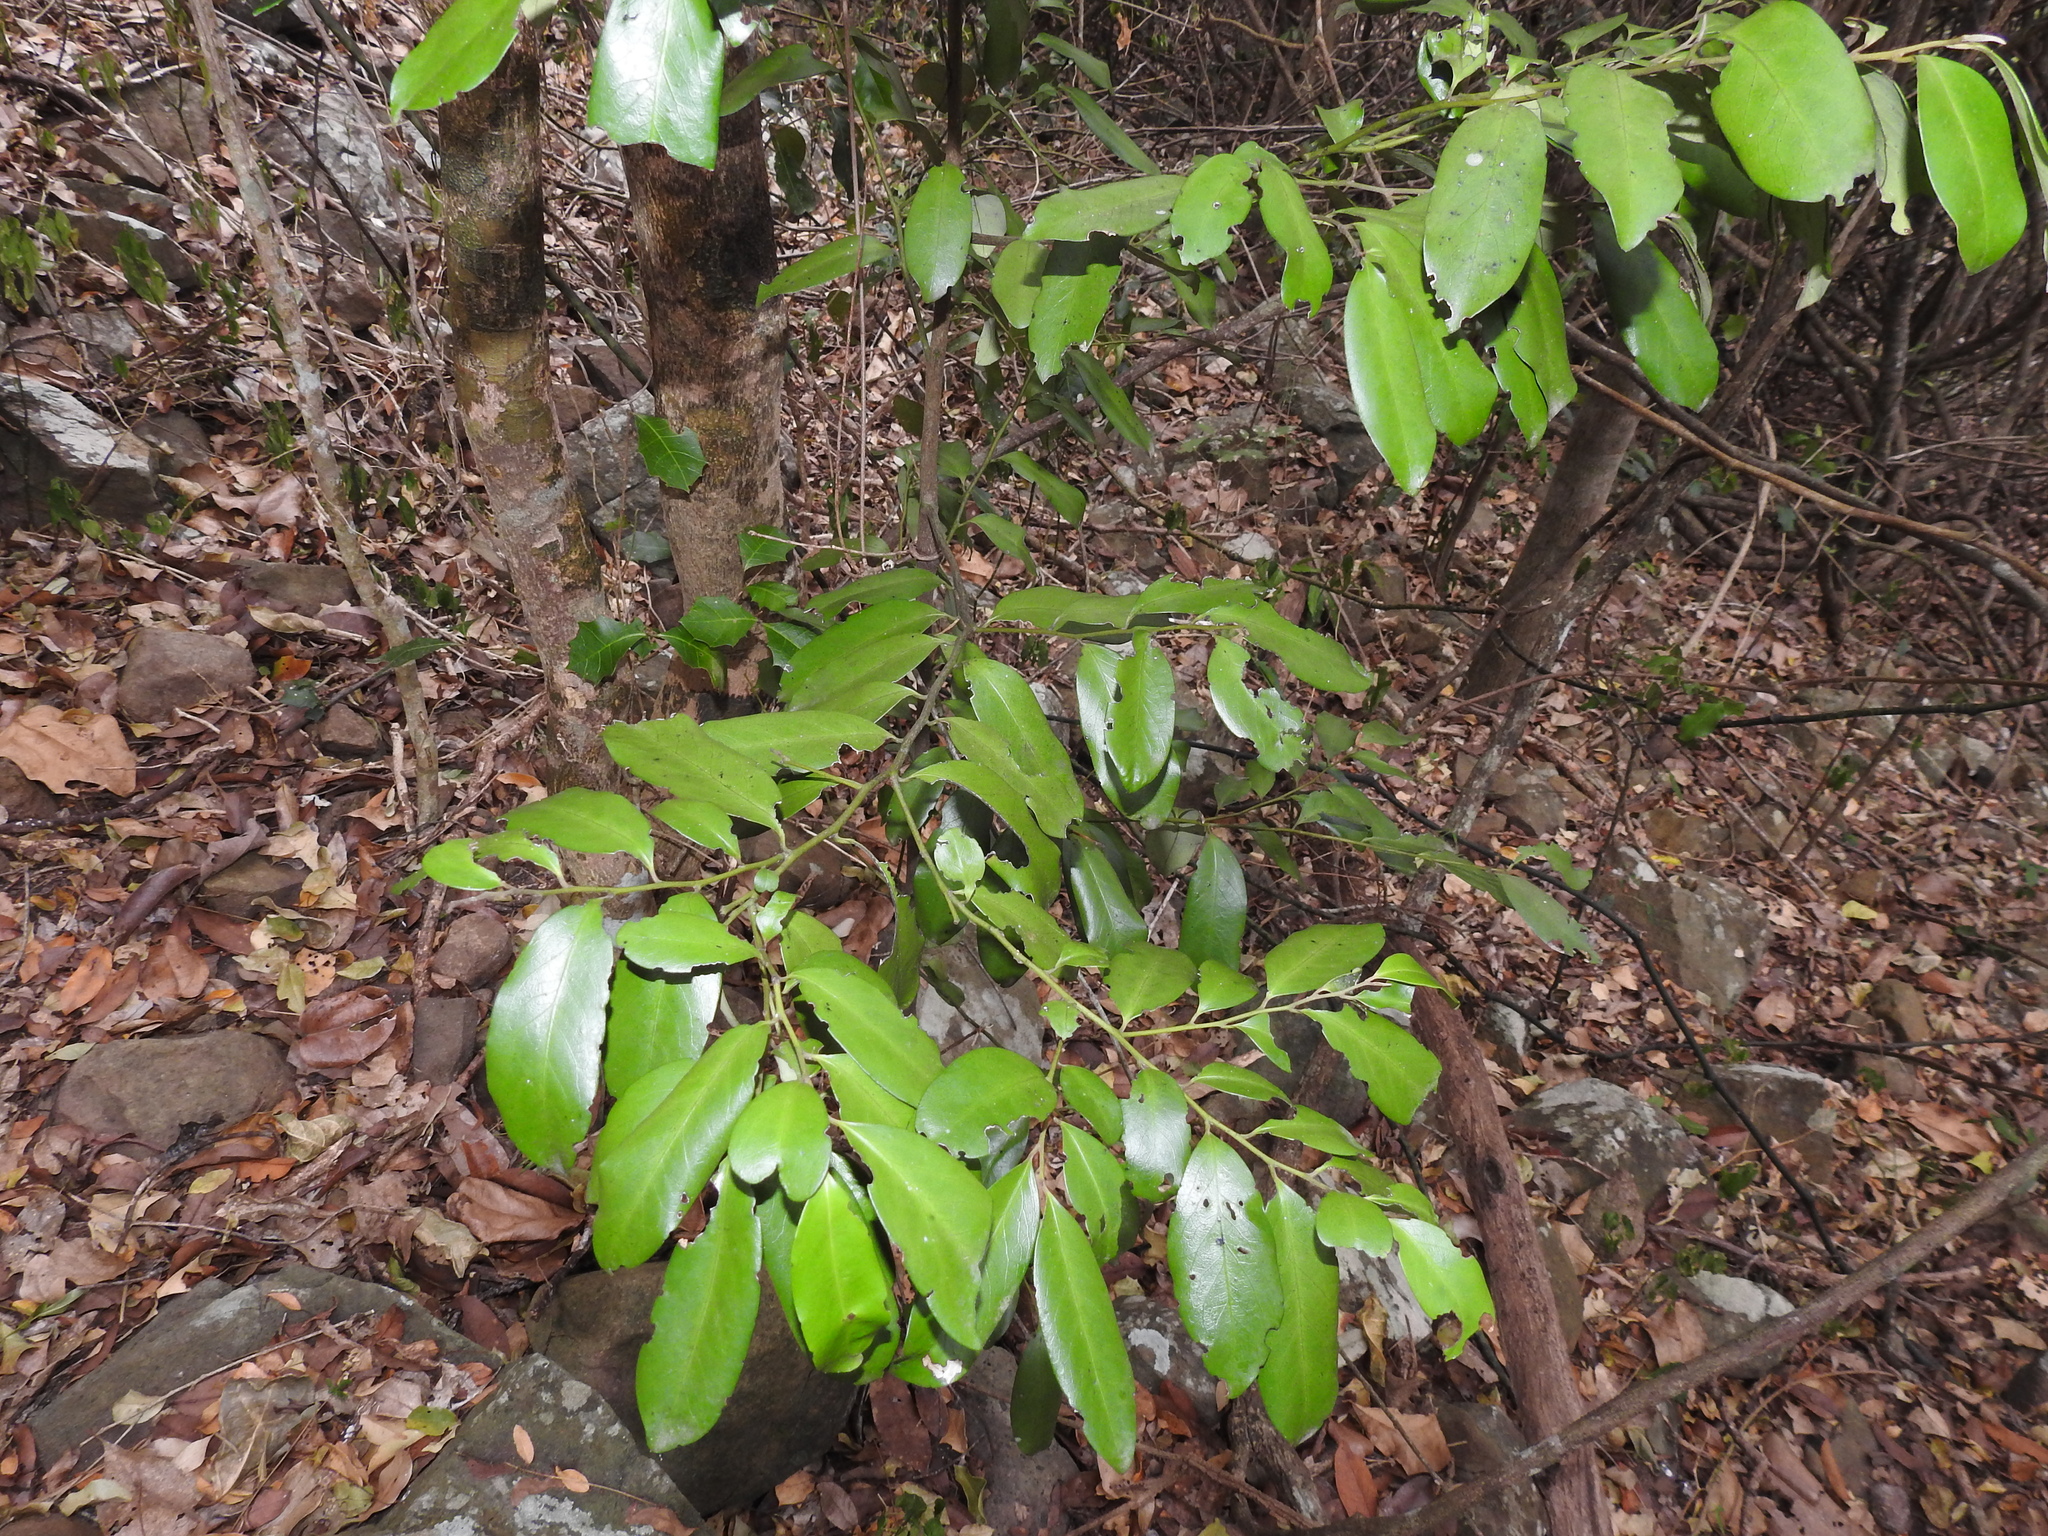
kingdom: Plantae
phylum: Tracheophyta
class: Magnoliopsida
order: Ericales
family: Ebenaceae
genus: Diospyros
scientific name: Diospyros australis
